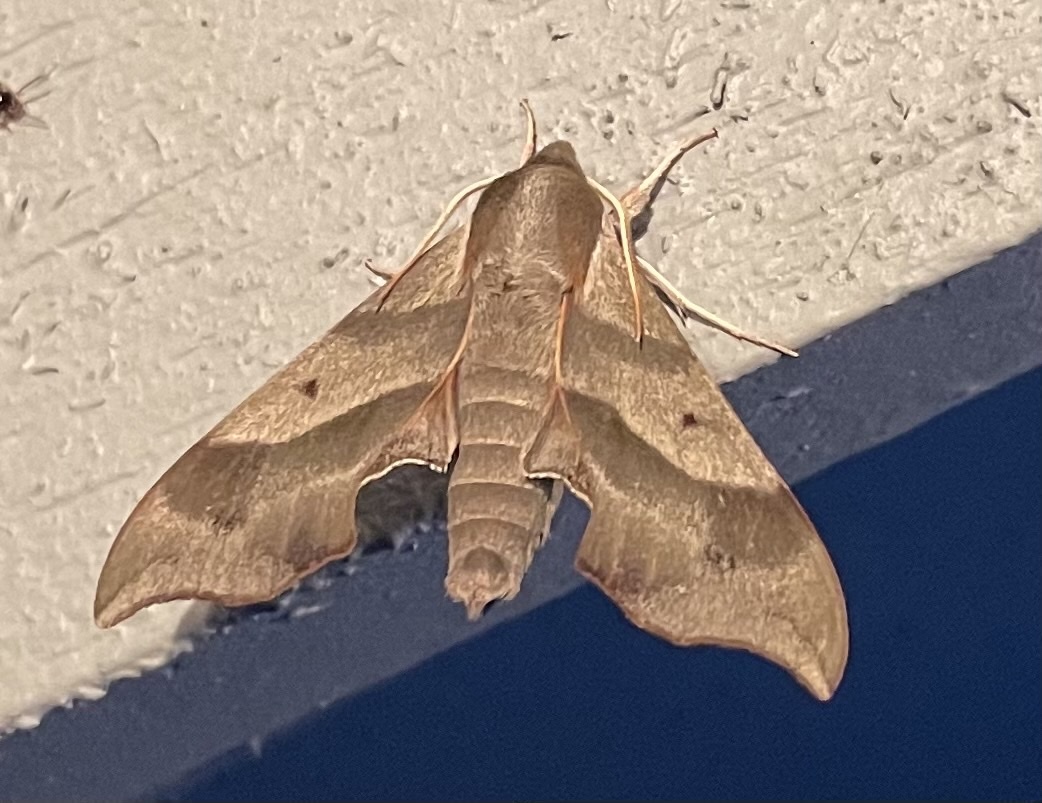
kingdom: Animalia
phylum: Arthropoda
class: Insecta
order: Lepidoptera
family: Sphingidae
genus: Darapsa
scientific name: Darapsa myron
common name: Hog sphinx
